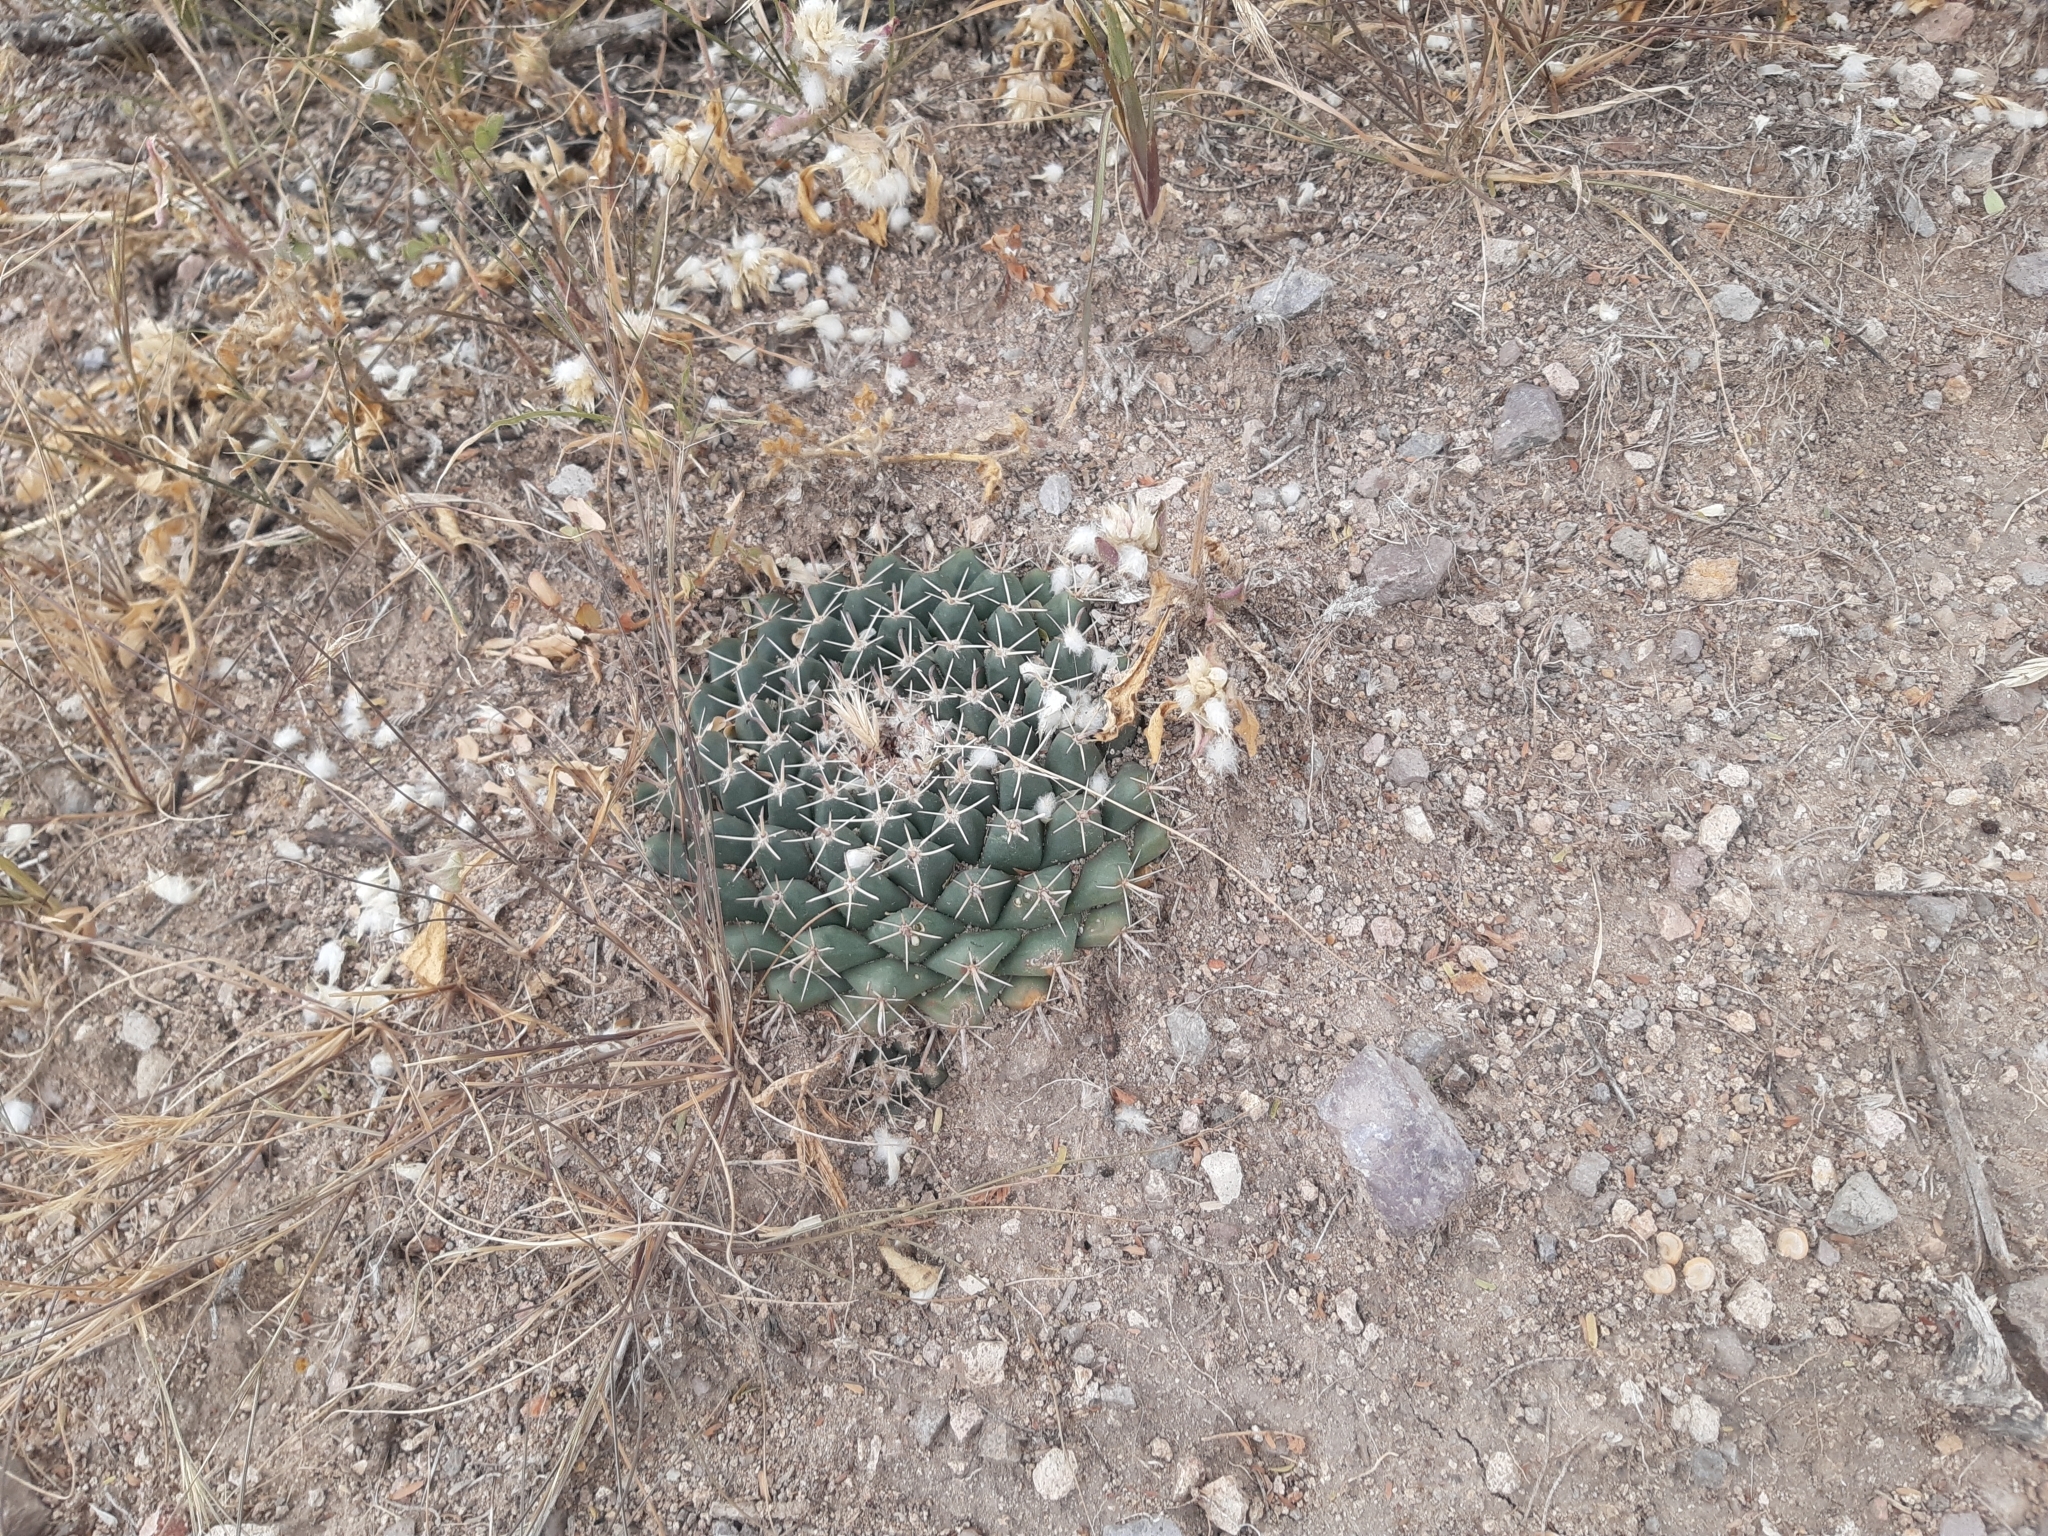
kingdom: Plantae
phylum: Tracheophyta
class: Magnoliopsida
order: Caryophyllales
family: Cactaceae
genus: Mammillaria
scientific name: Mammillaria uncinata
